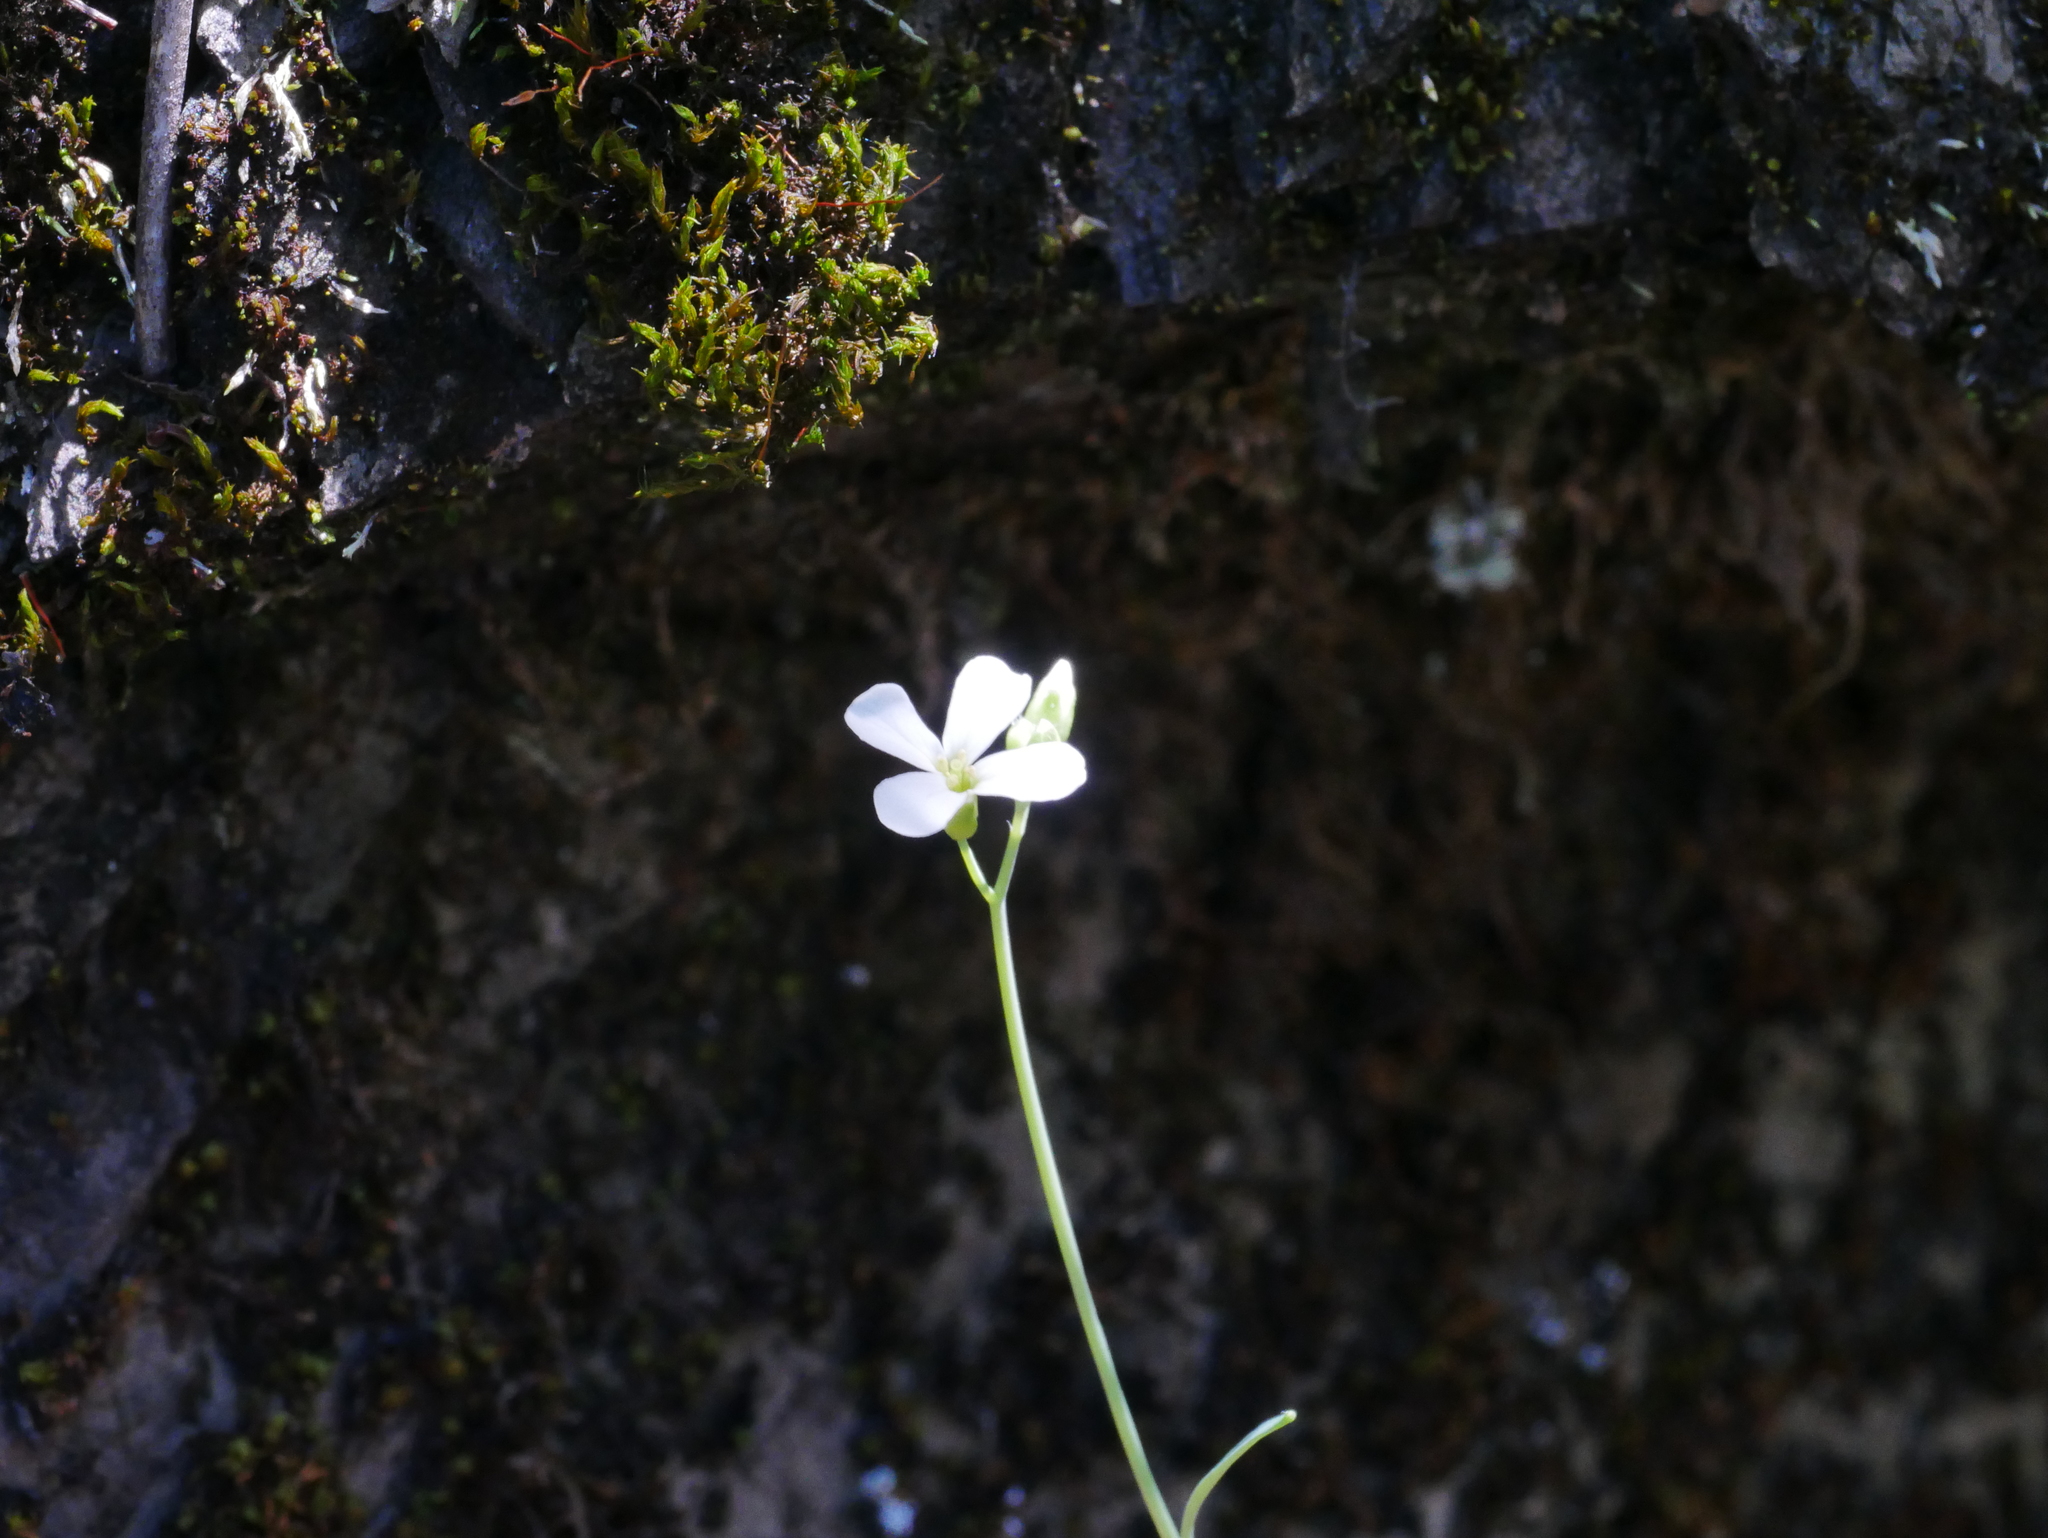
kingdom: Plantae
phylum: Tracheophyta
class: Magnoliopsida
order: Brassicales
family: Brassicaceae
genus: Arabidopsis
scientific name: Arabidopsis lyrata
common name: Lyrate rockcress
